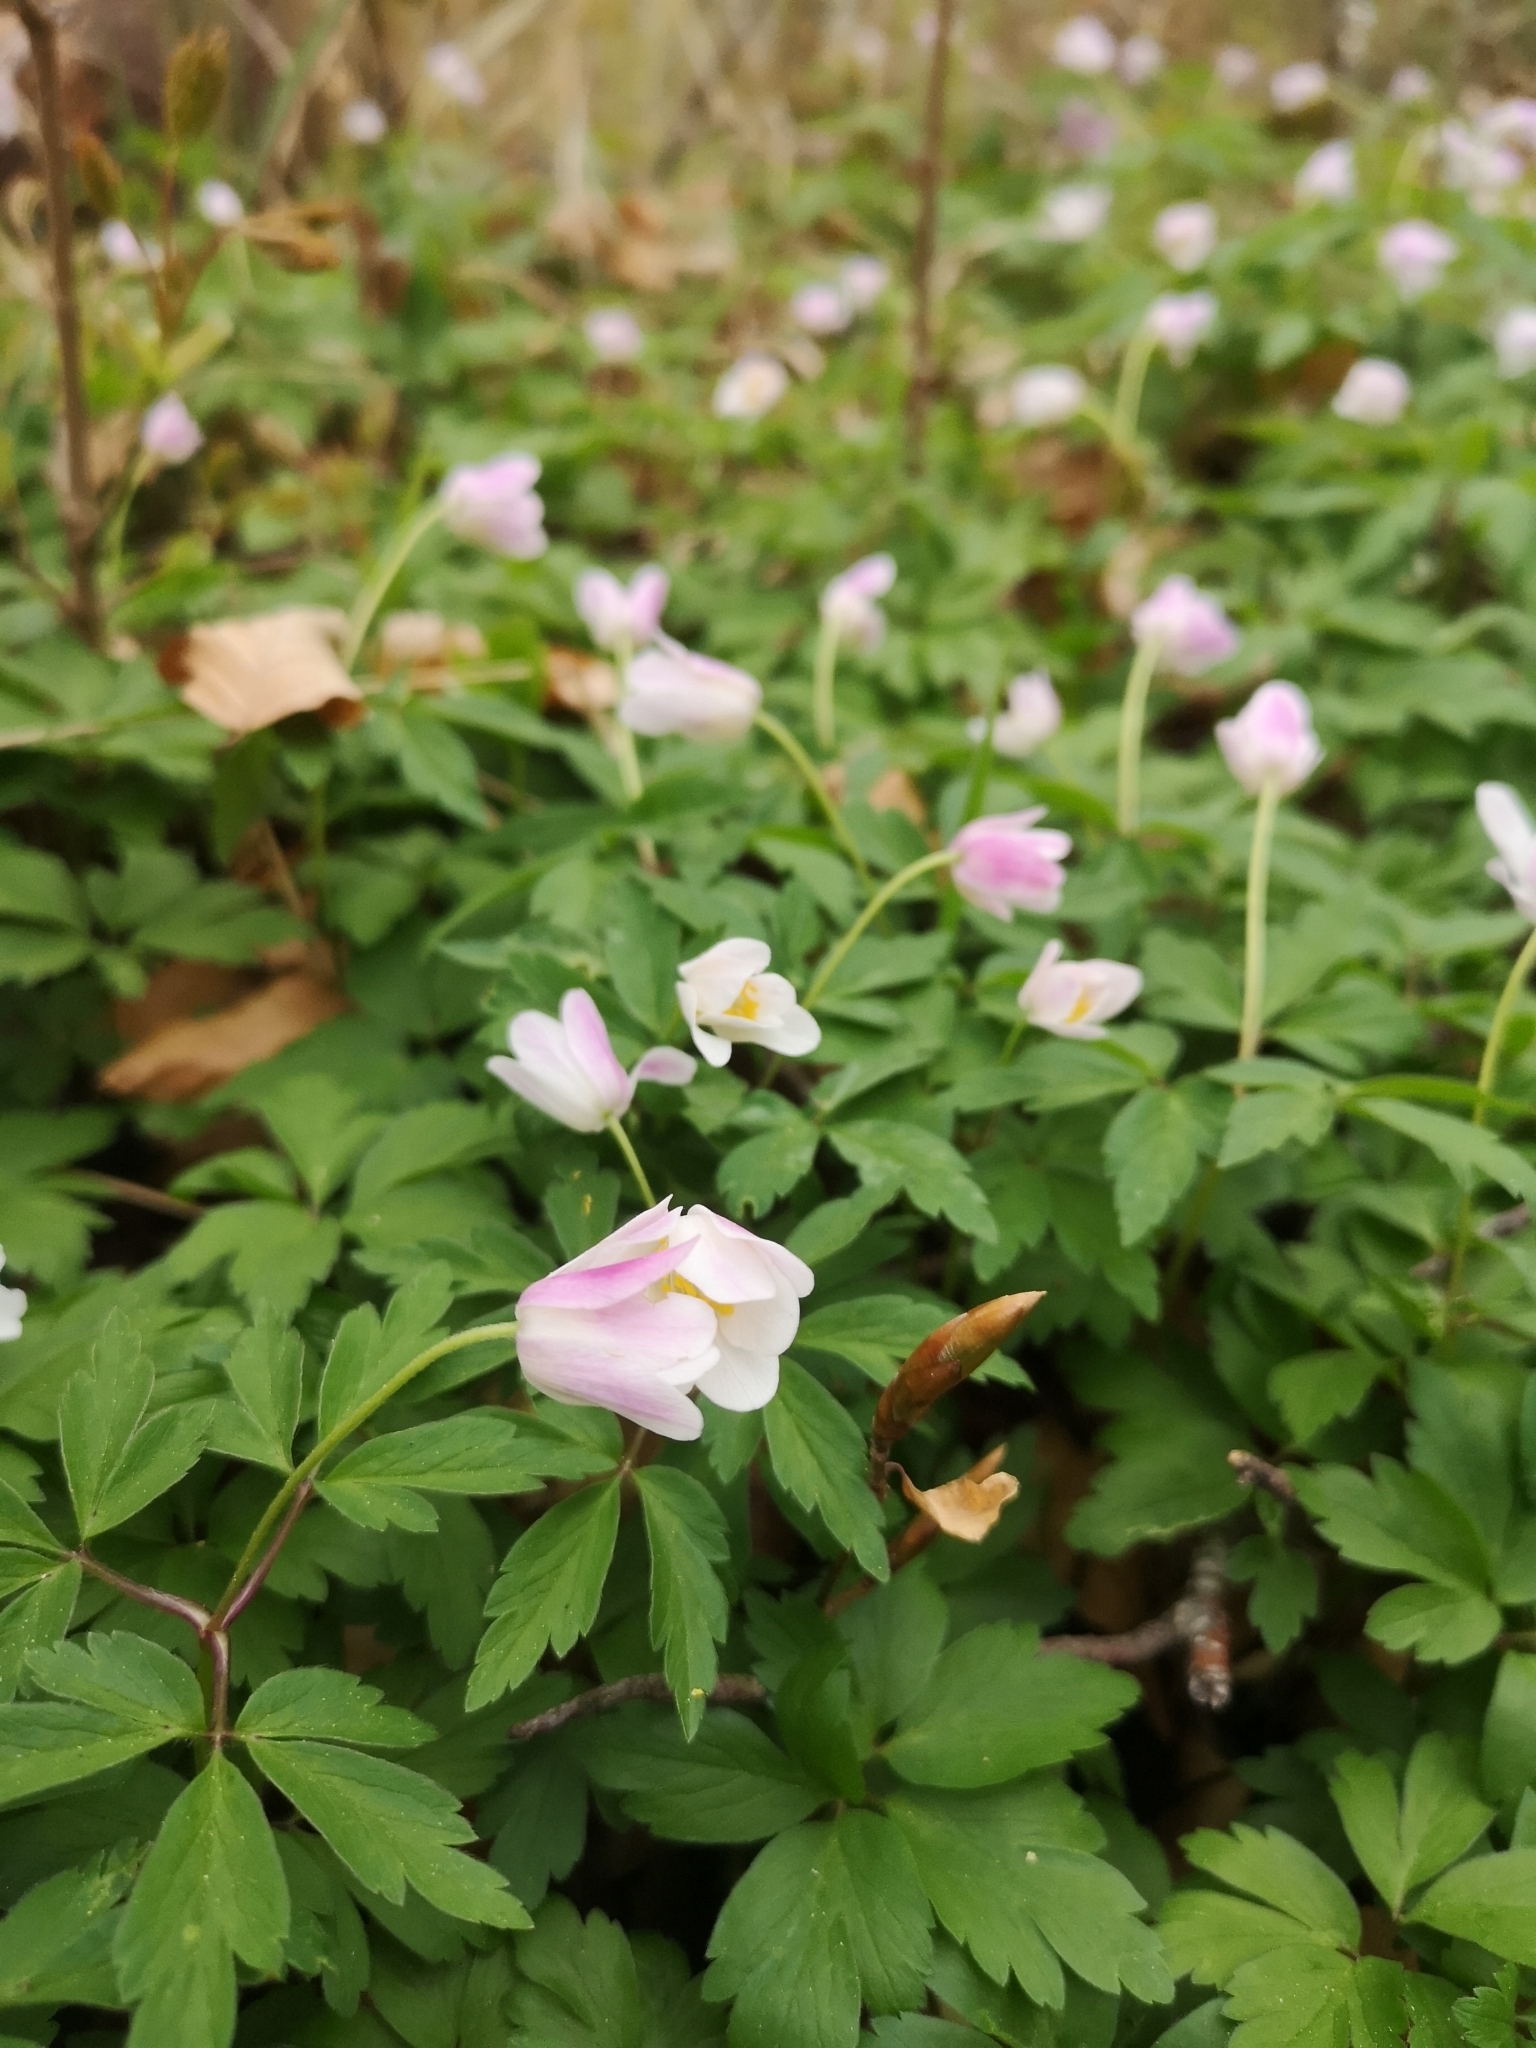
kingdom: Plantae
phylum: Tracheophyta
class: Magnoliopsida
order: Ranunculales
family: Ranunculaceae
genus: Anemone
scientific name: Anemone nemorosa
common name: Wood anemone
